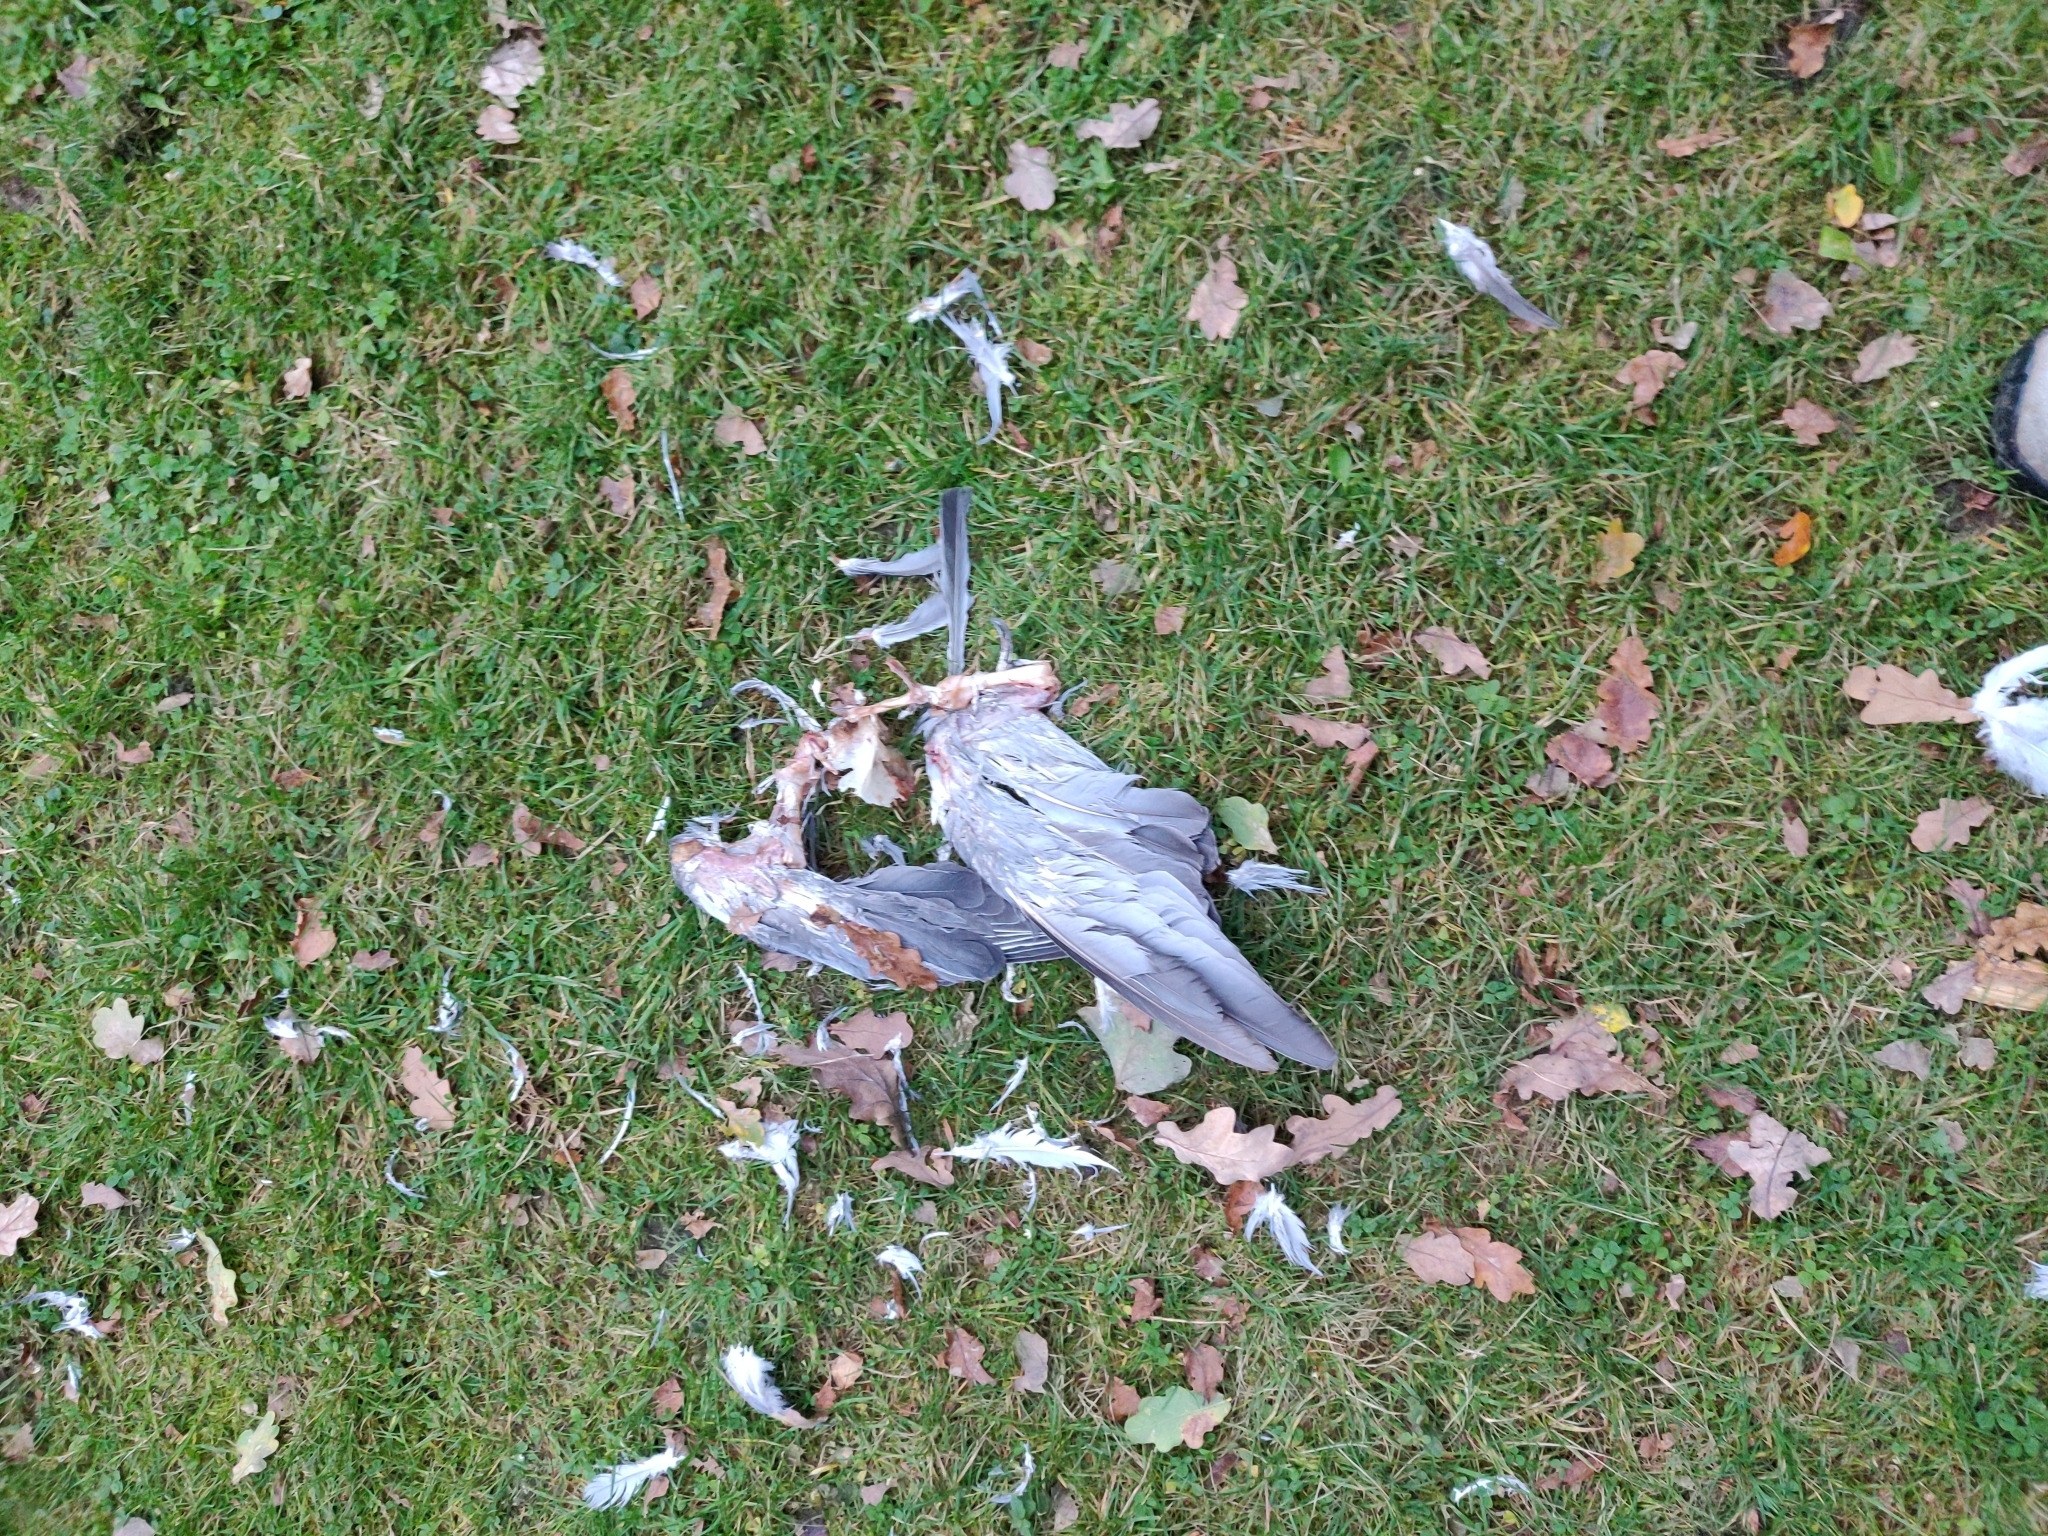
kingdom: Animalia
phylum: Chordata
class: Aves
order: Columbiformes
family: Columbidae
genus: Columba
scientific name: Columba palumbus
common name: Common wood pigeon
